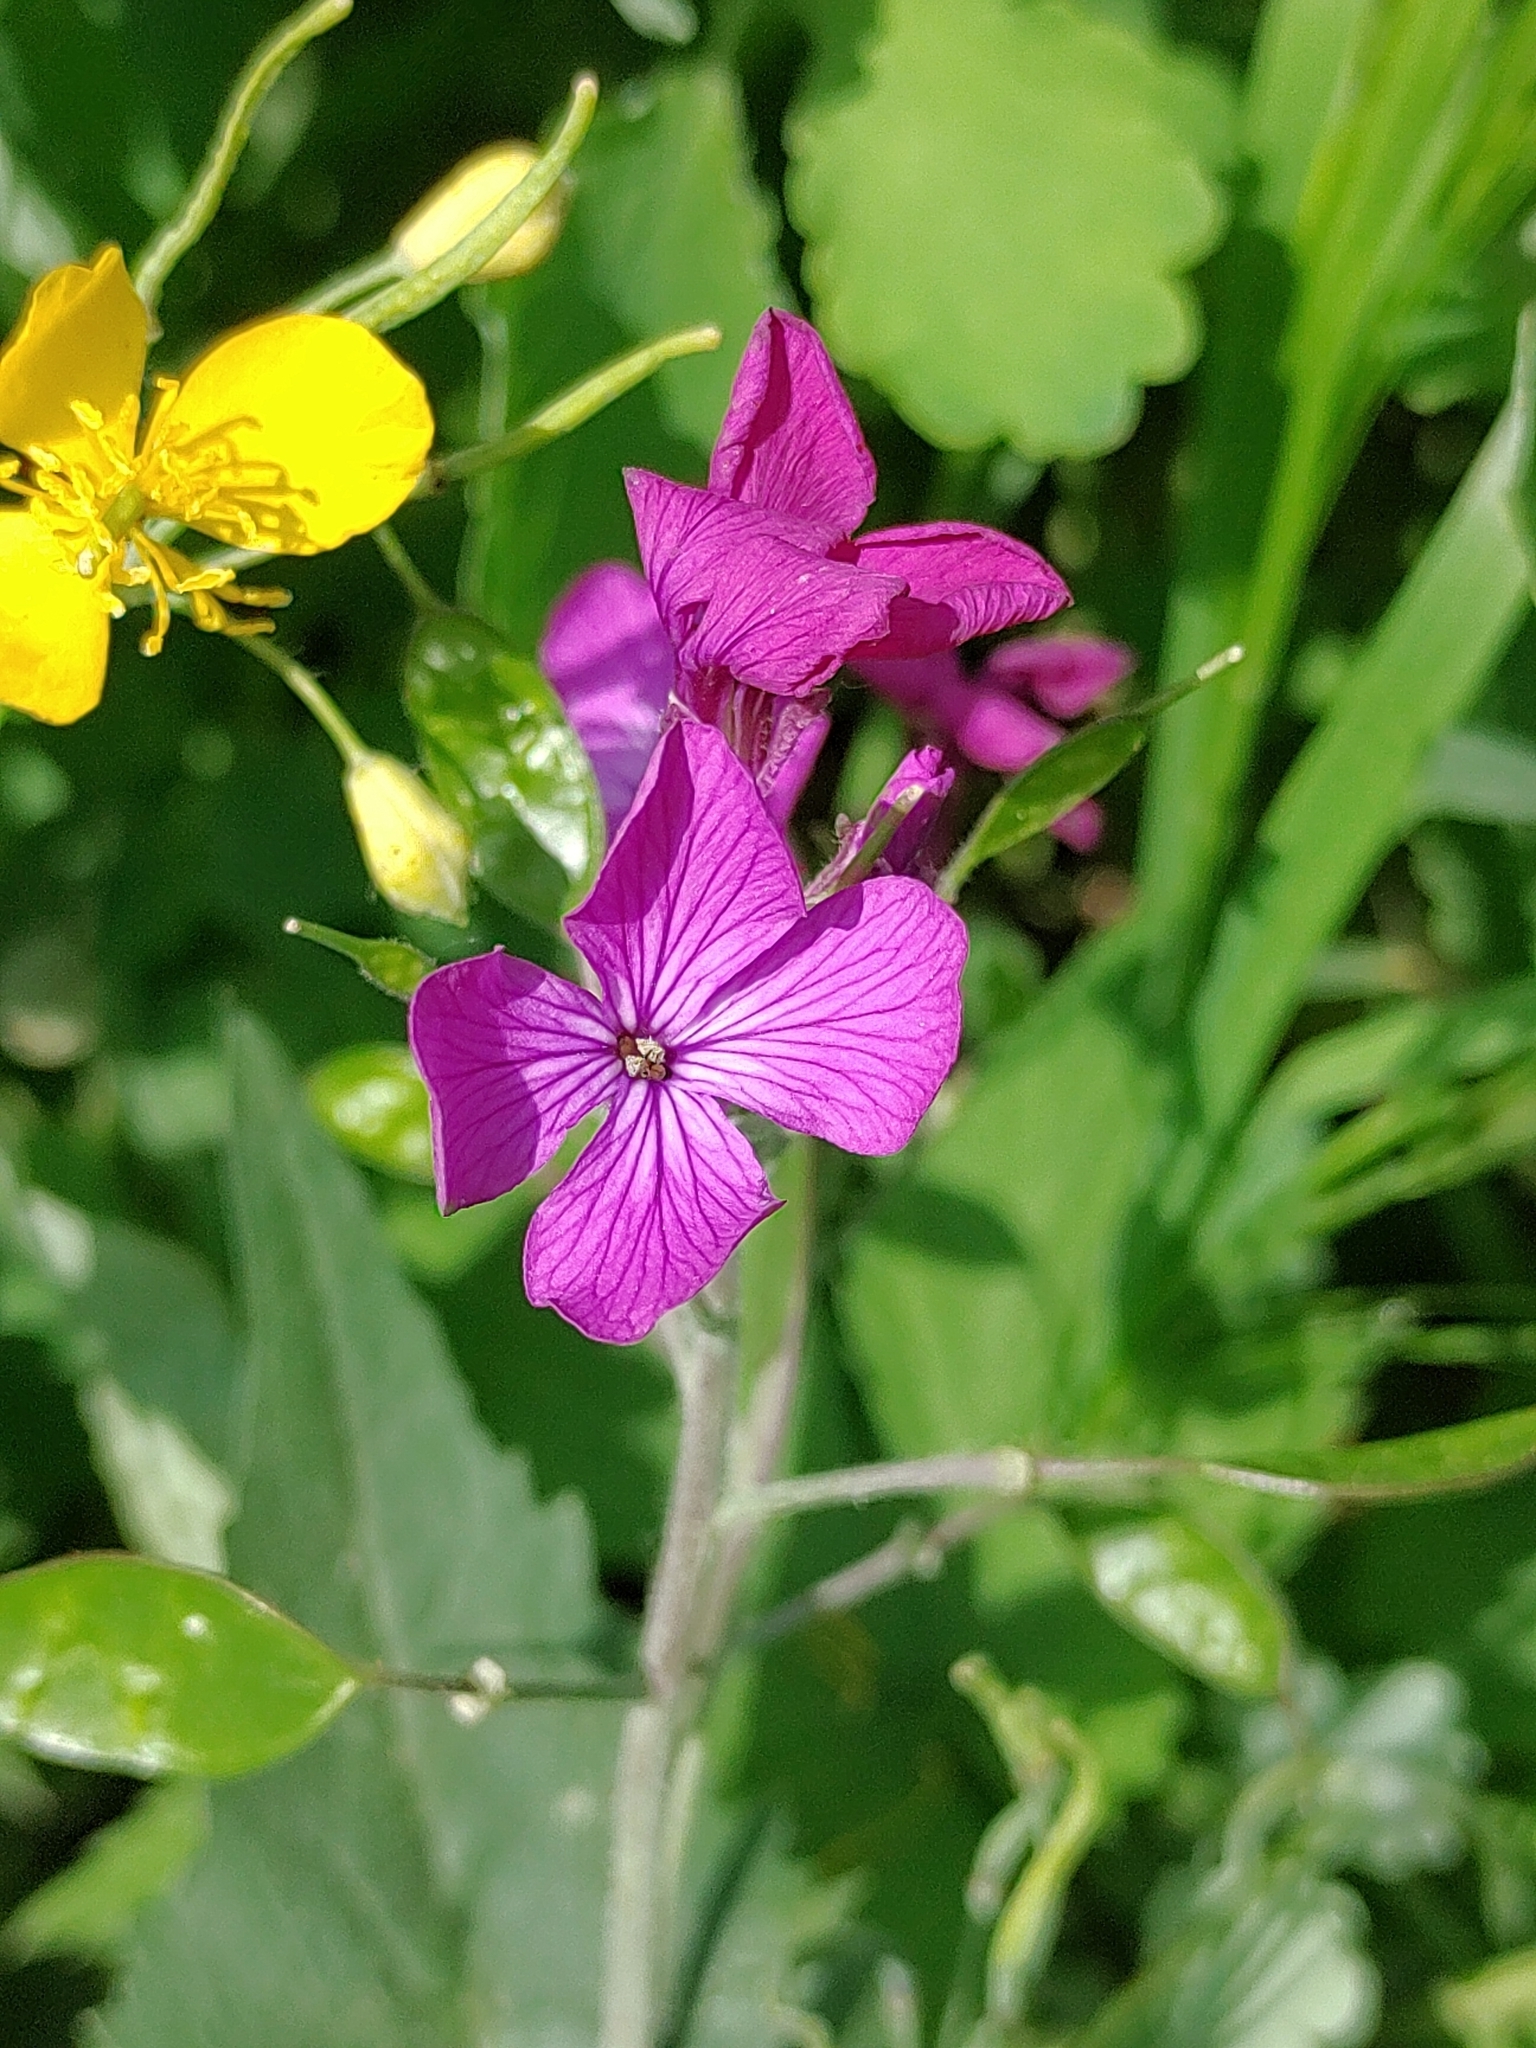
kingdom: Plantae
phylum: Tracheophyta
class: Magnoliopsida
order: Brassicales
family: Brassicaceae
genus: Lunaria
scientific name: Lunaria annua
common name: Honesty
